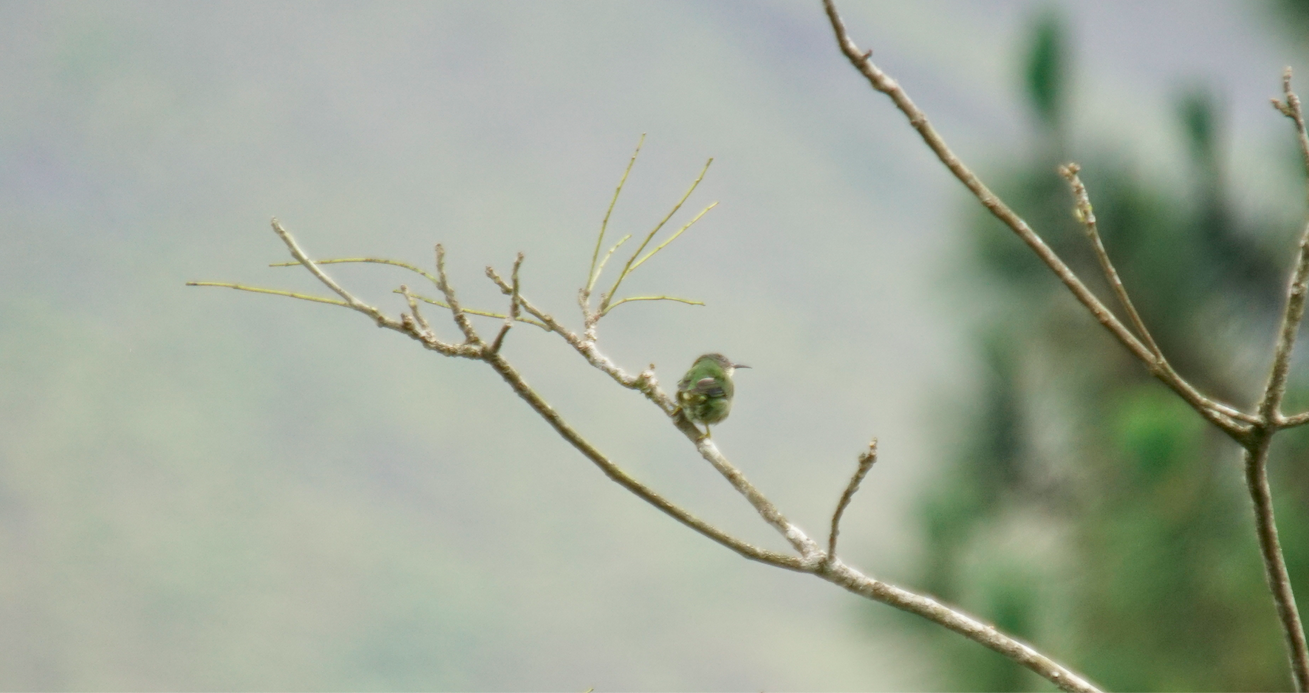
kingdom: Animalia
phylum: Chordata
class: Aves
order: Passeriformes
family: Thraupidae
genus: Cyanerpes
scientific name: Cyanerpes lucidus
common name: Shining honeycreeper
